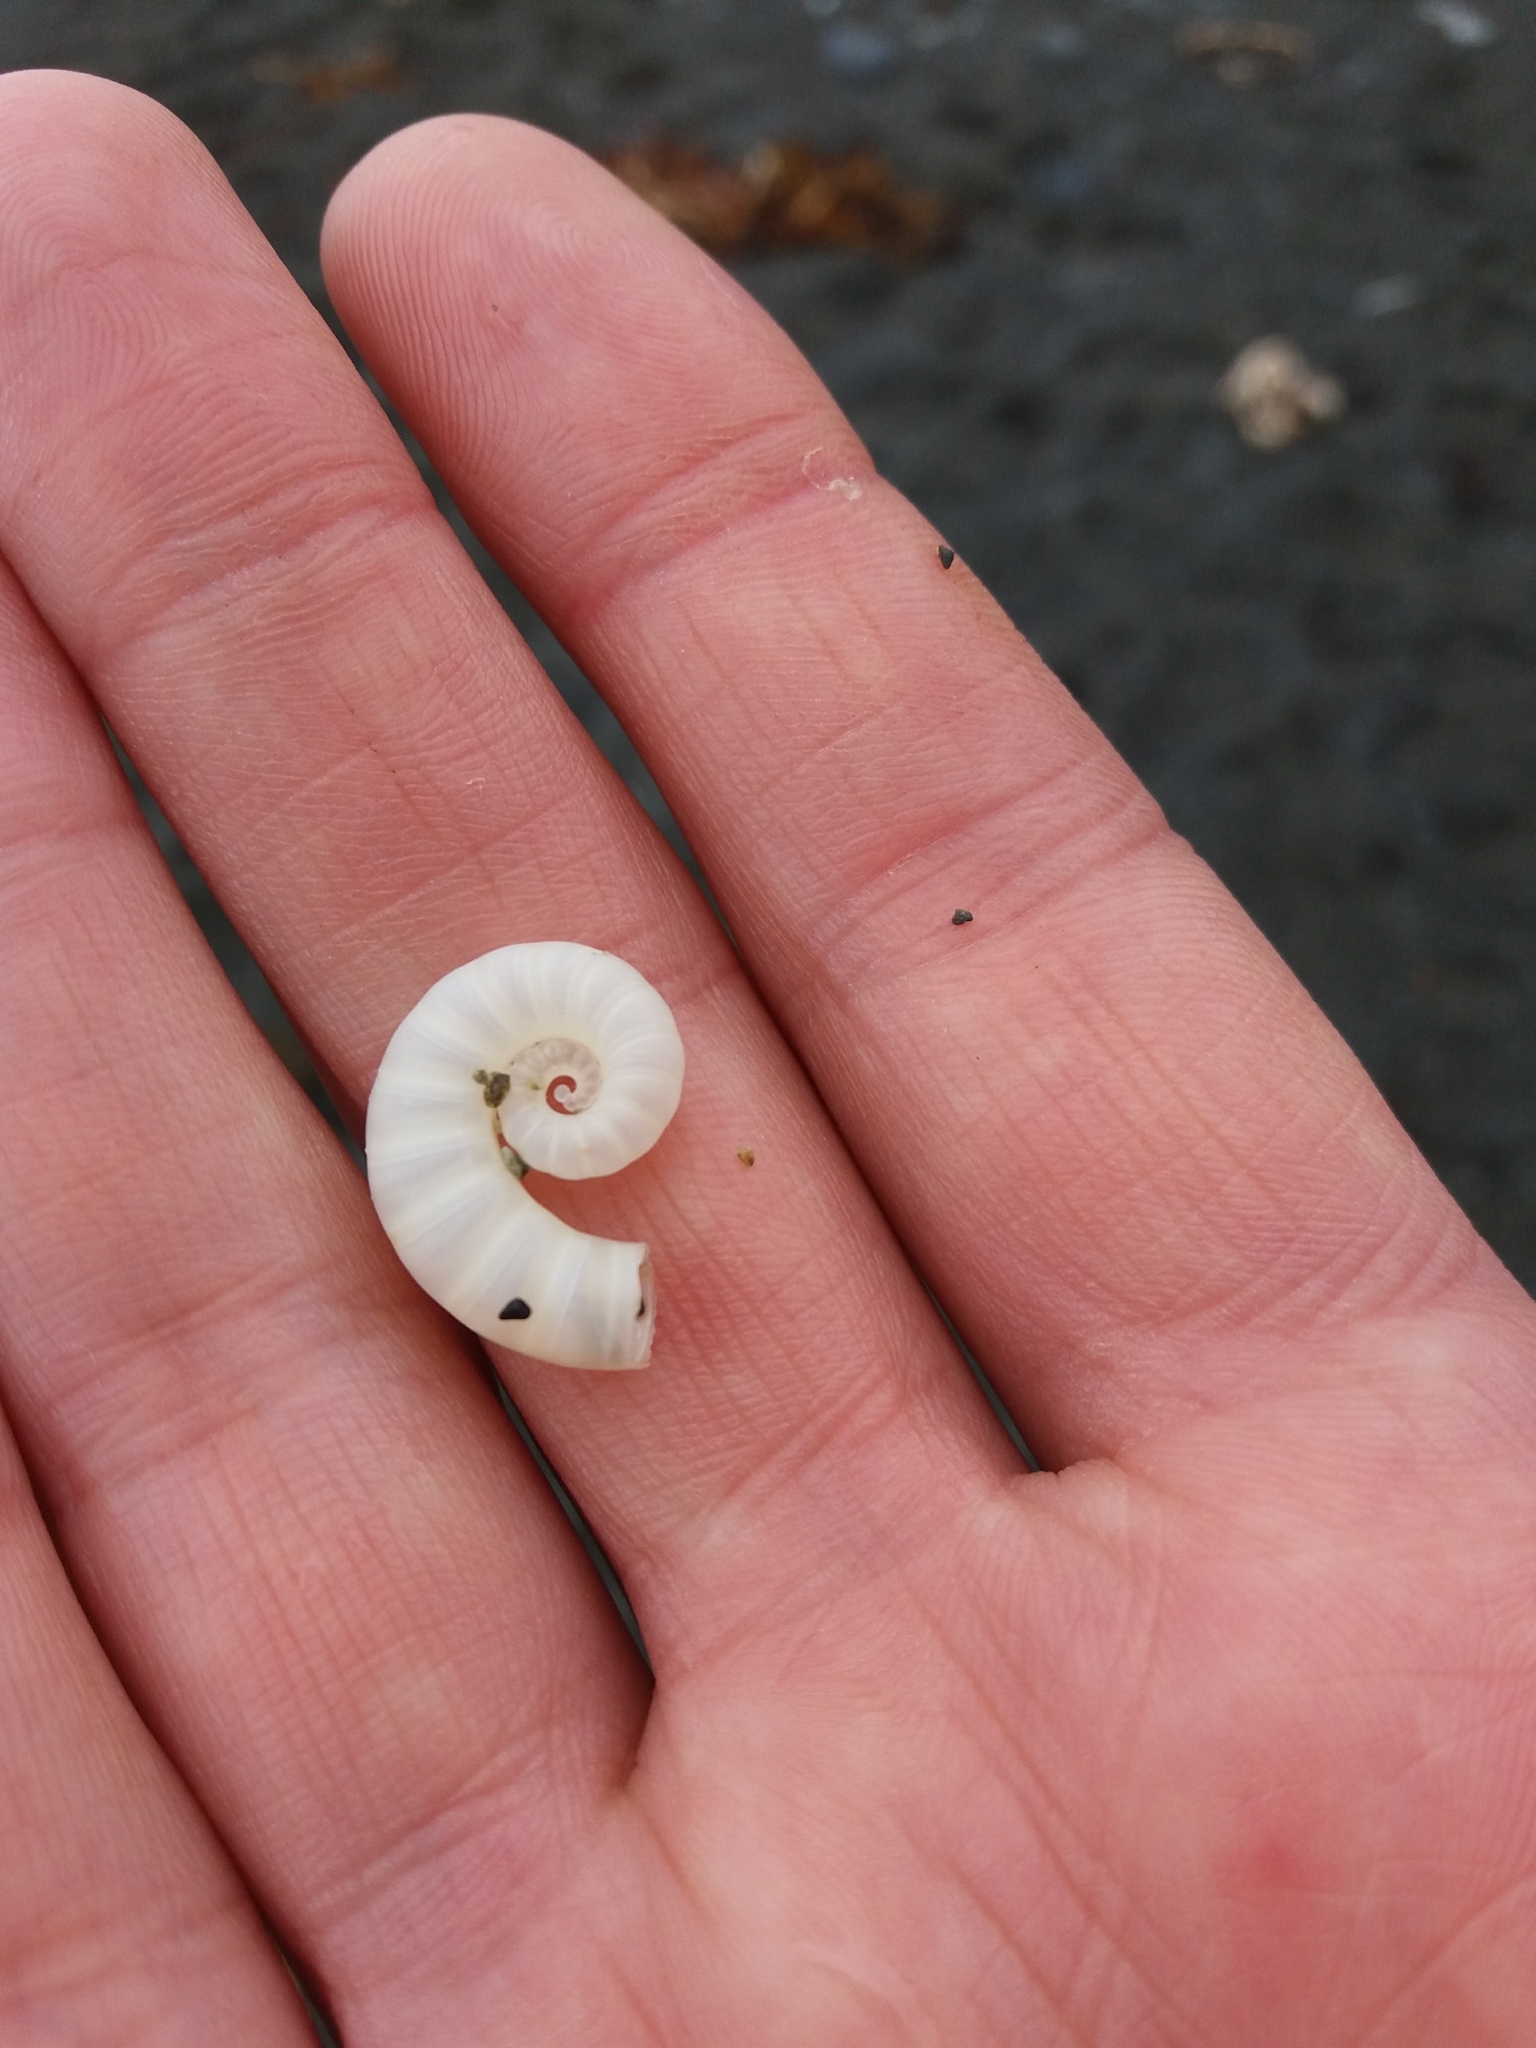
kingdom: Animalia
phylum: Mollusca
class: Cephalopoda
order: Spirulida
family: Spirulidae
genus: Spirula
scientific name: Spirula spirula
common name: Ram's horn squid
